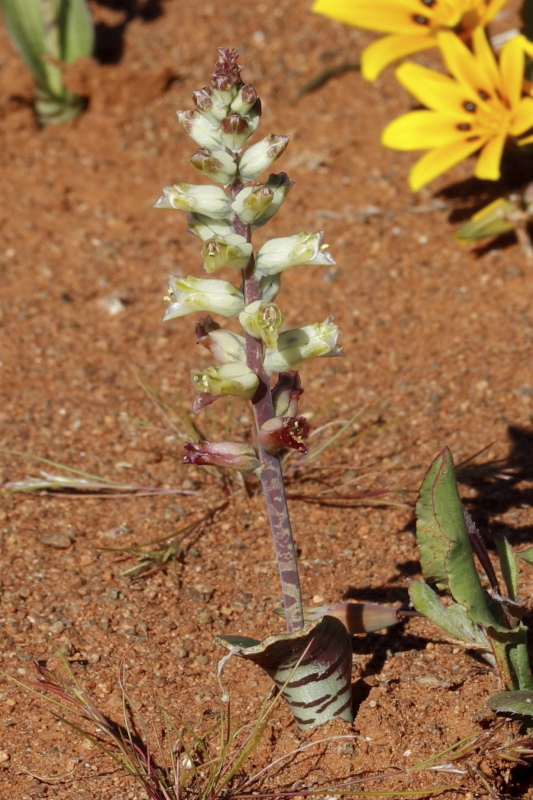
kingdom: Plantae
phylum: Tracheophyta
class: Liliopsida
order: Asparagales
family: Asparagaceae
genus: Lachenalia
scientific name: Lachenalia aurioliae
